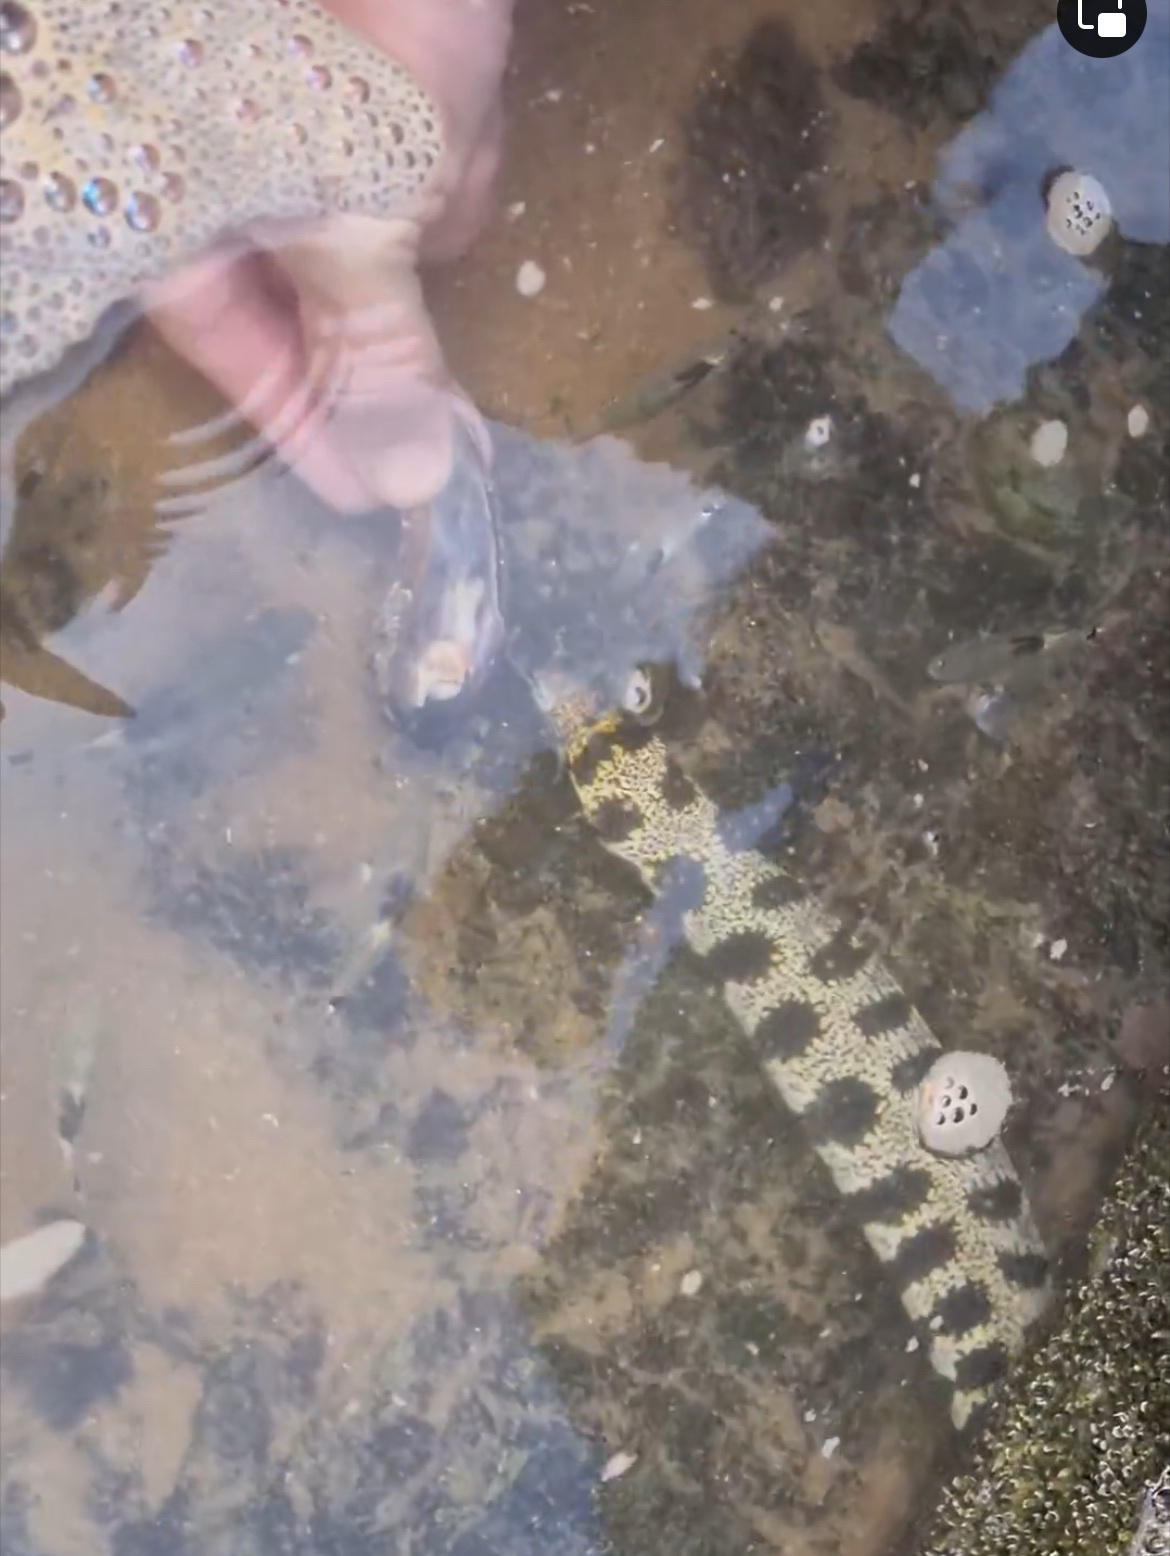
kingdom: Animalia
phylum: Chordata
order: Anguilliformes
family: Muraenidae
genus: Echidna
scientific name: Echidna nebulosa
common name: Snowflake moray
